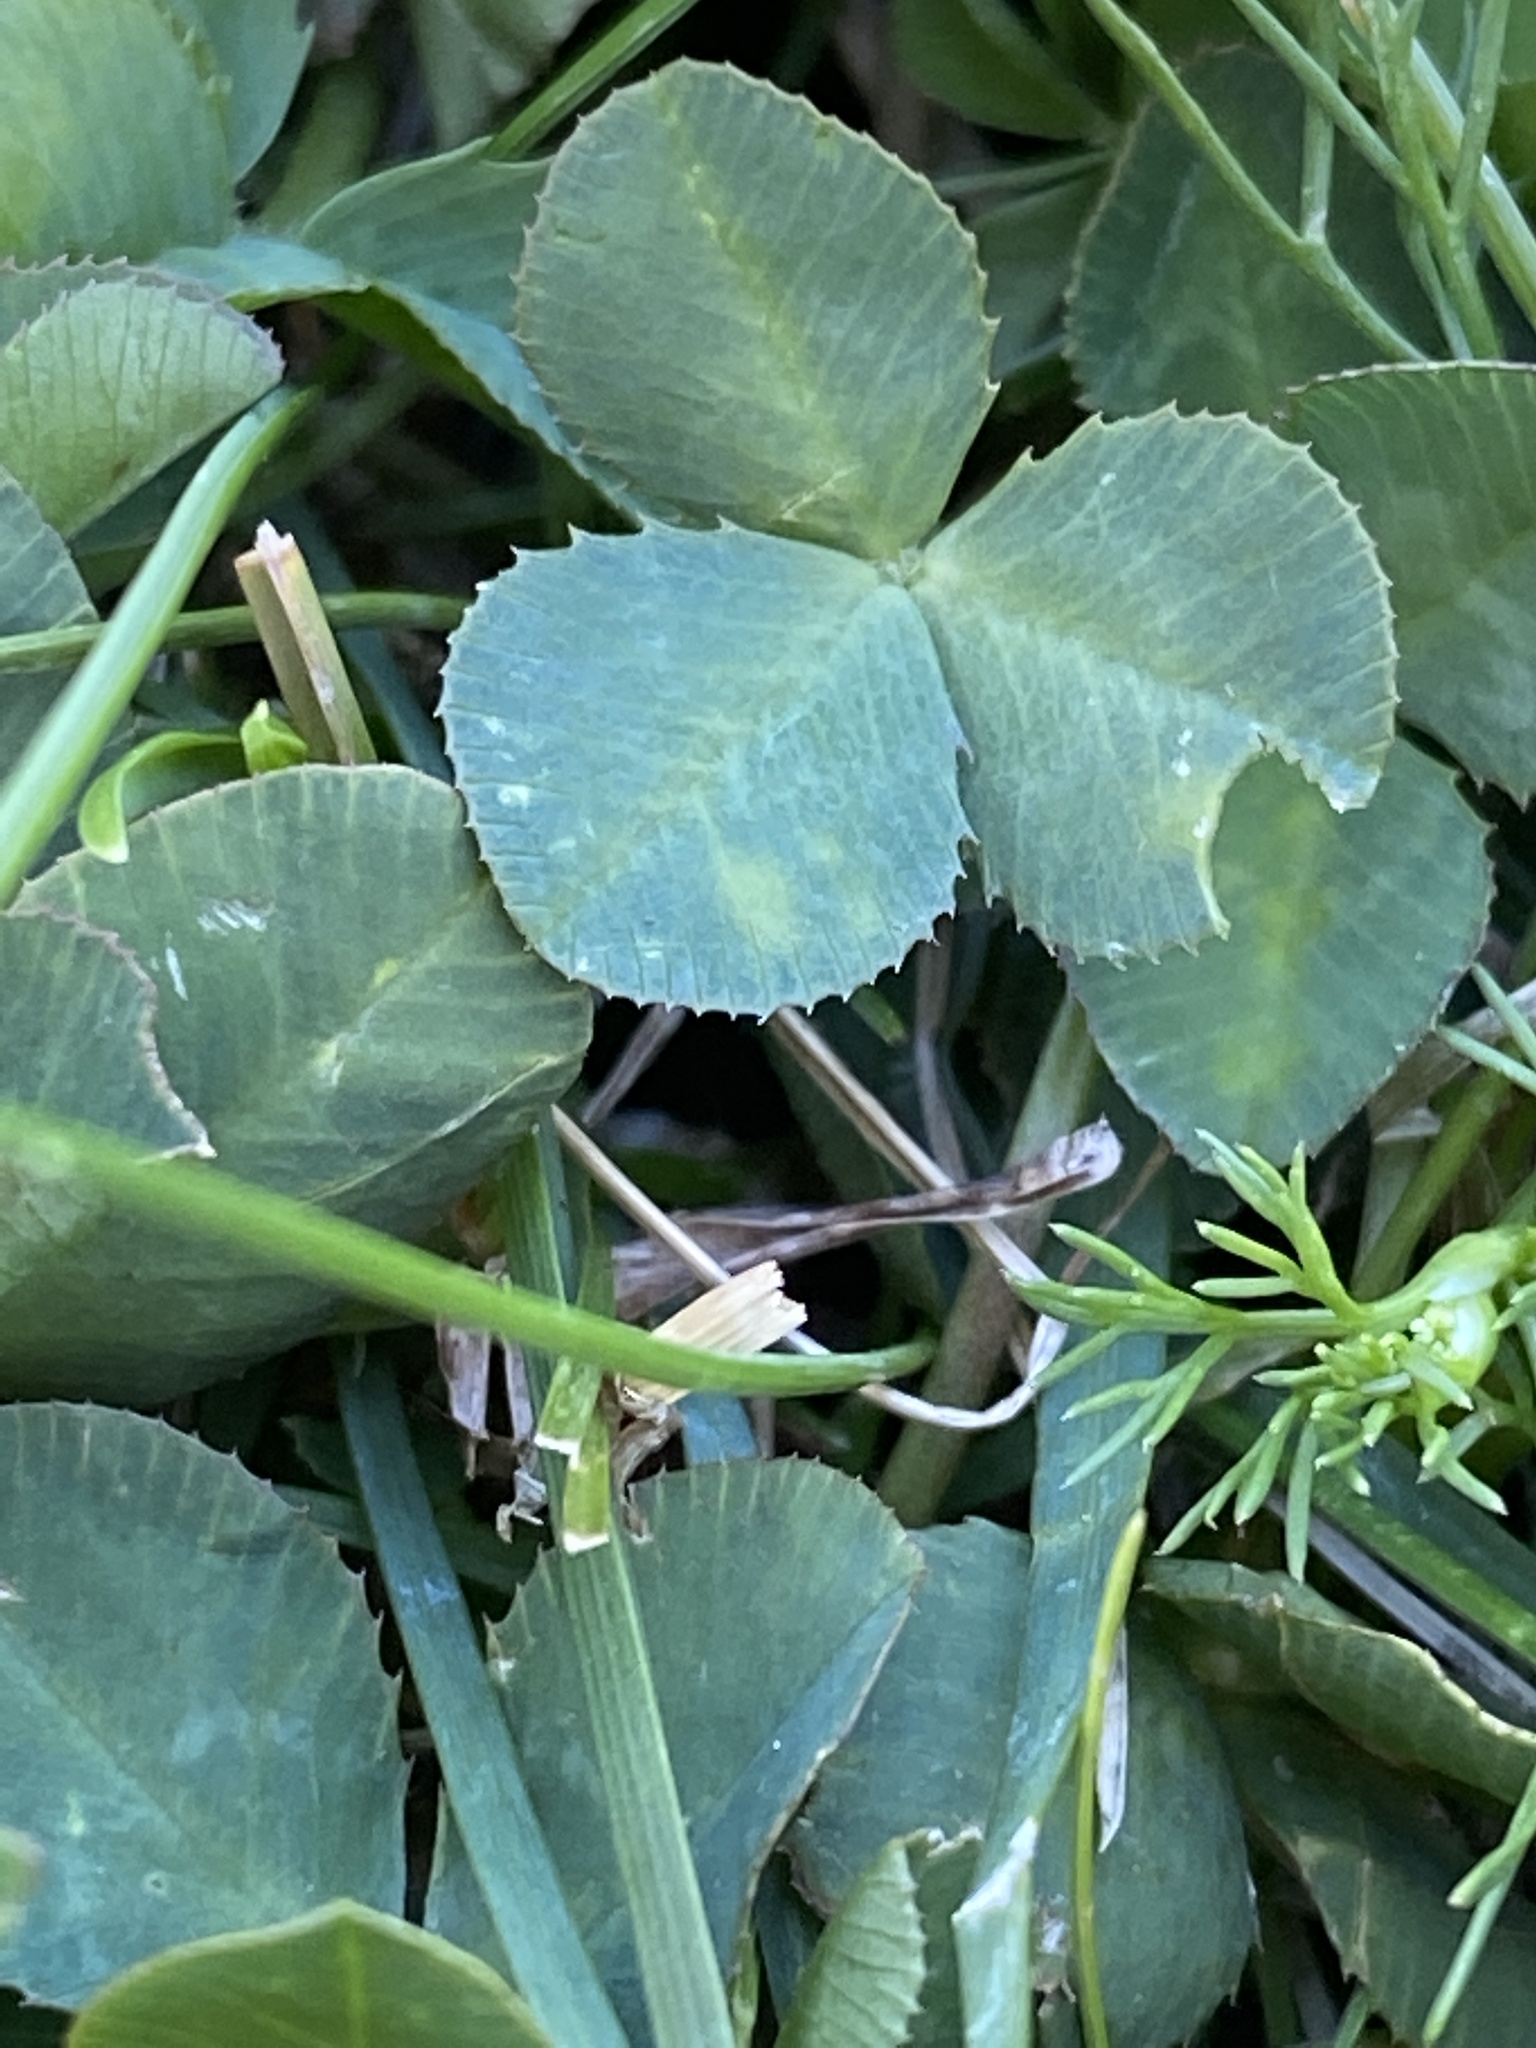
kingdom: Plantae
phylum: Tracheophyta
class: Magnoliopsida
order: Fabales
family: Fabaceae
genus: Trifolium
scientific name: Trifolium repens
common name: White clover
